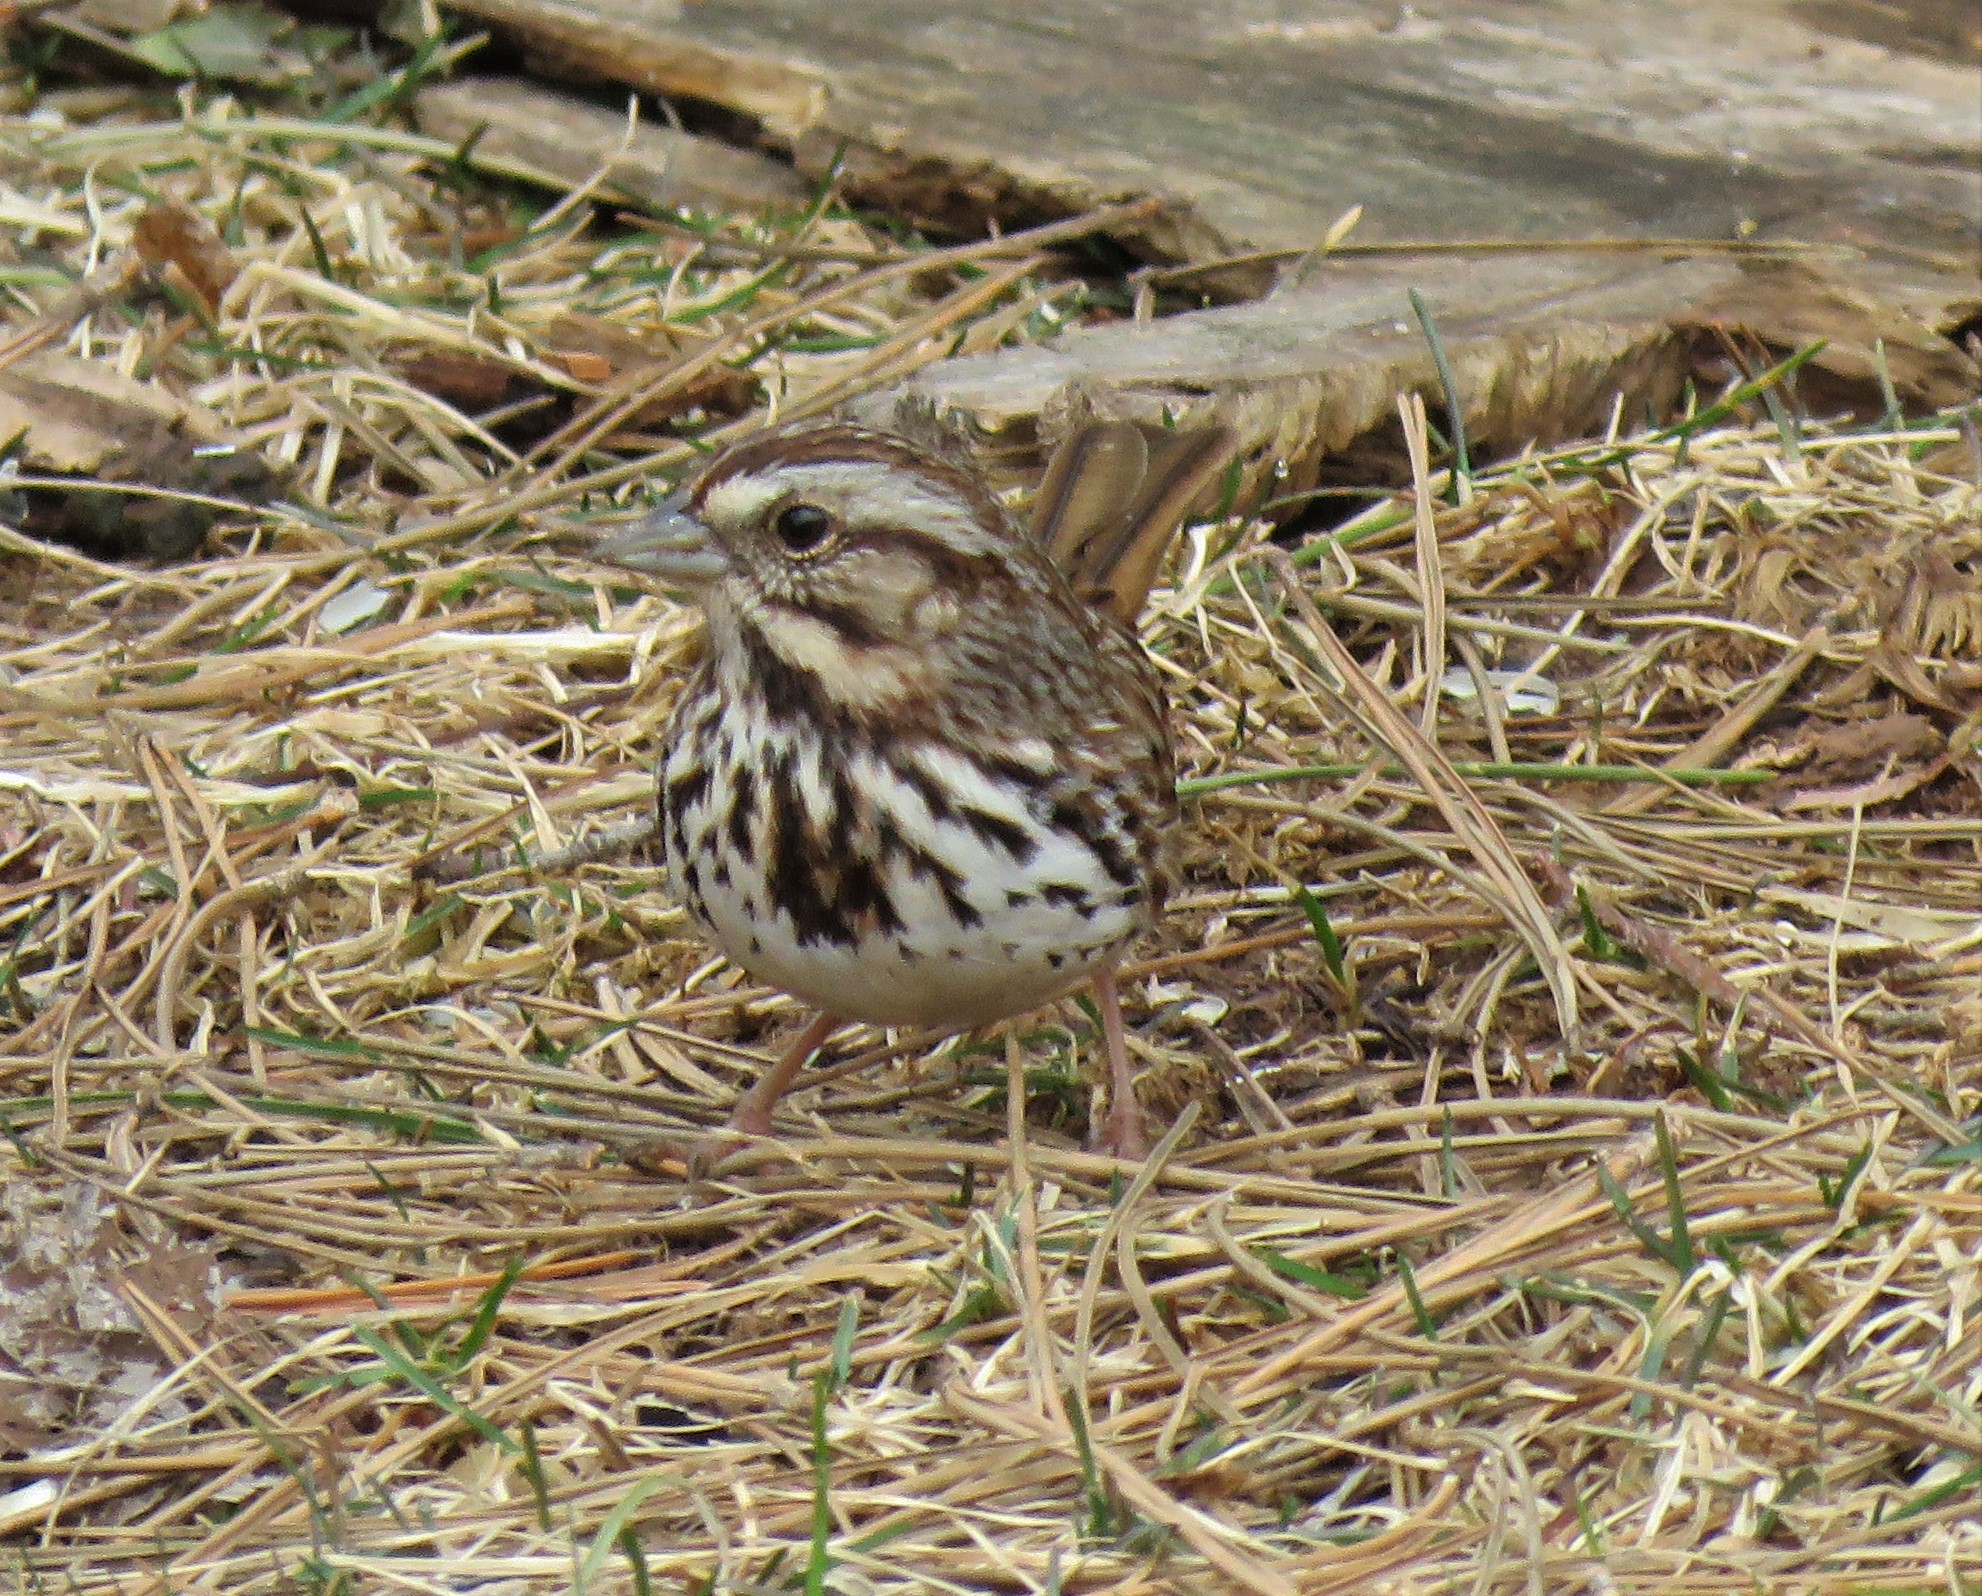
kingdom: Animalia
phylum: Chordata
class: Aves
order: Passeriformes
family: Passerellidae
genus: Melospiza
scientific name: Melospiza melodia
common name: Song sparrow
